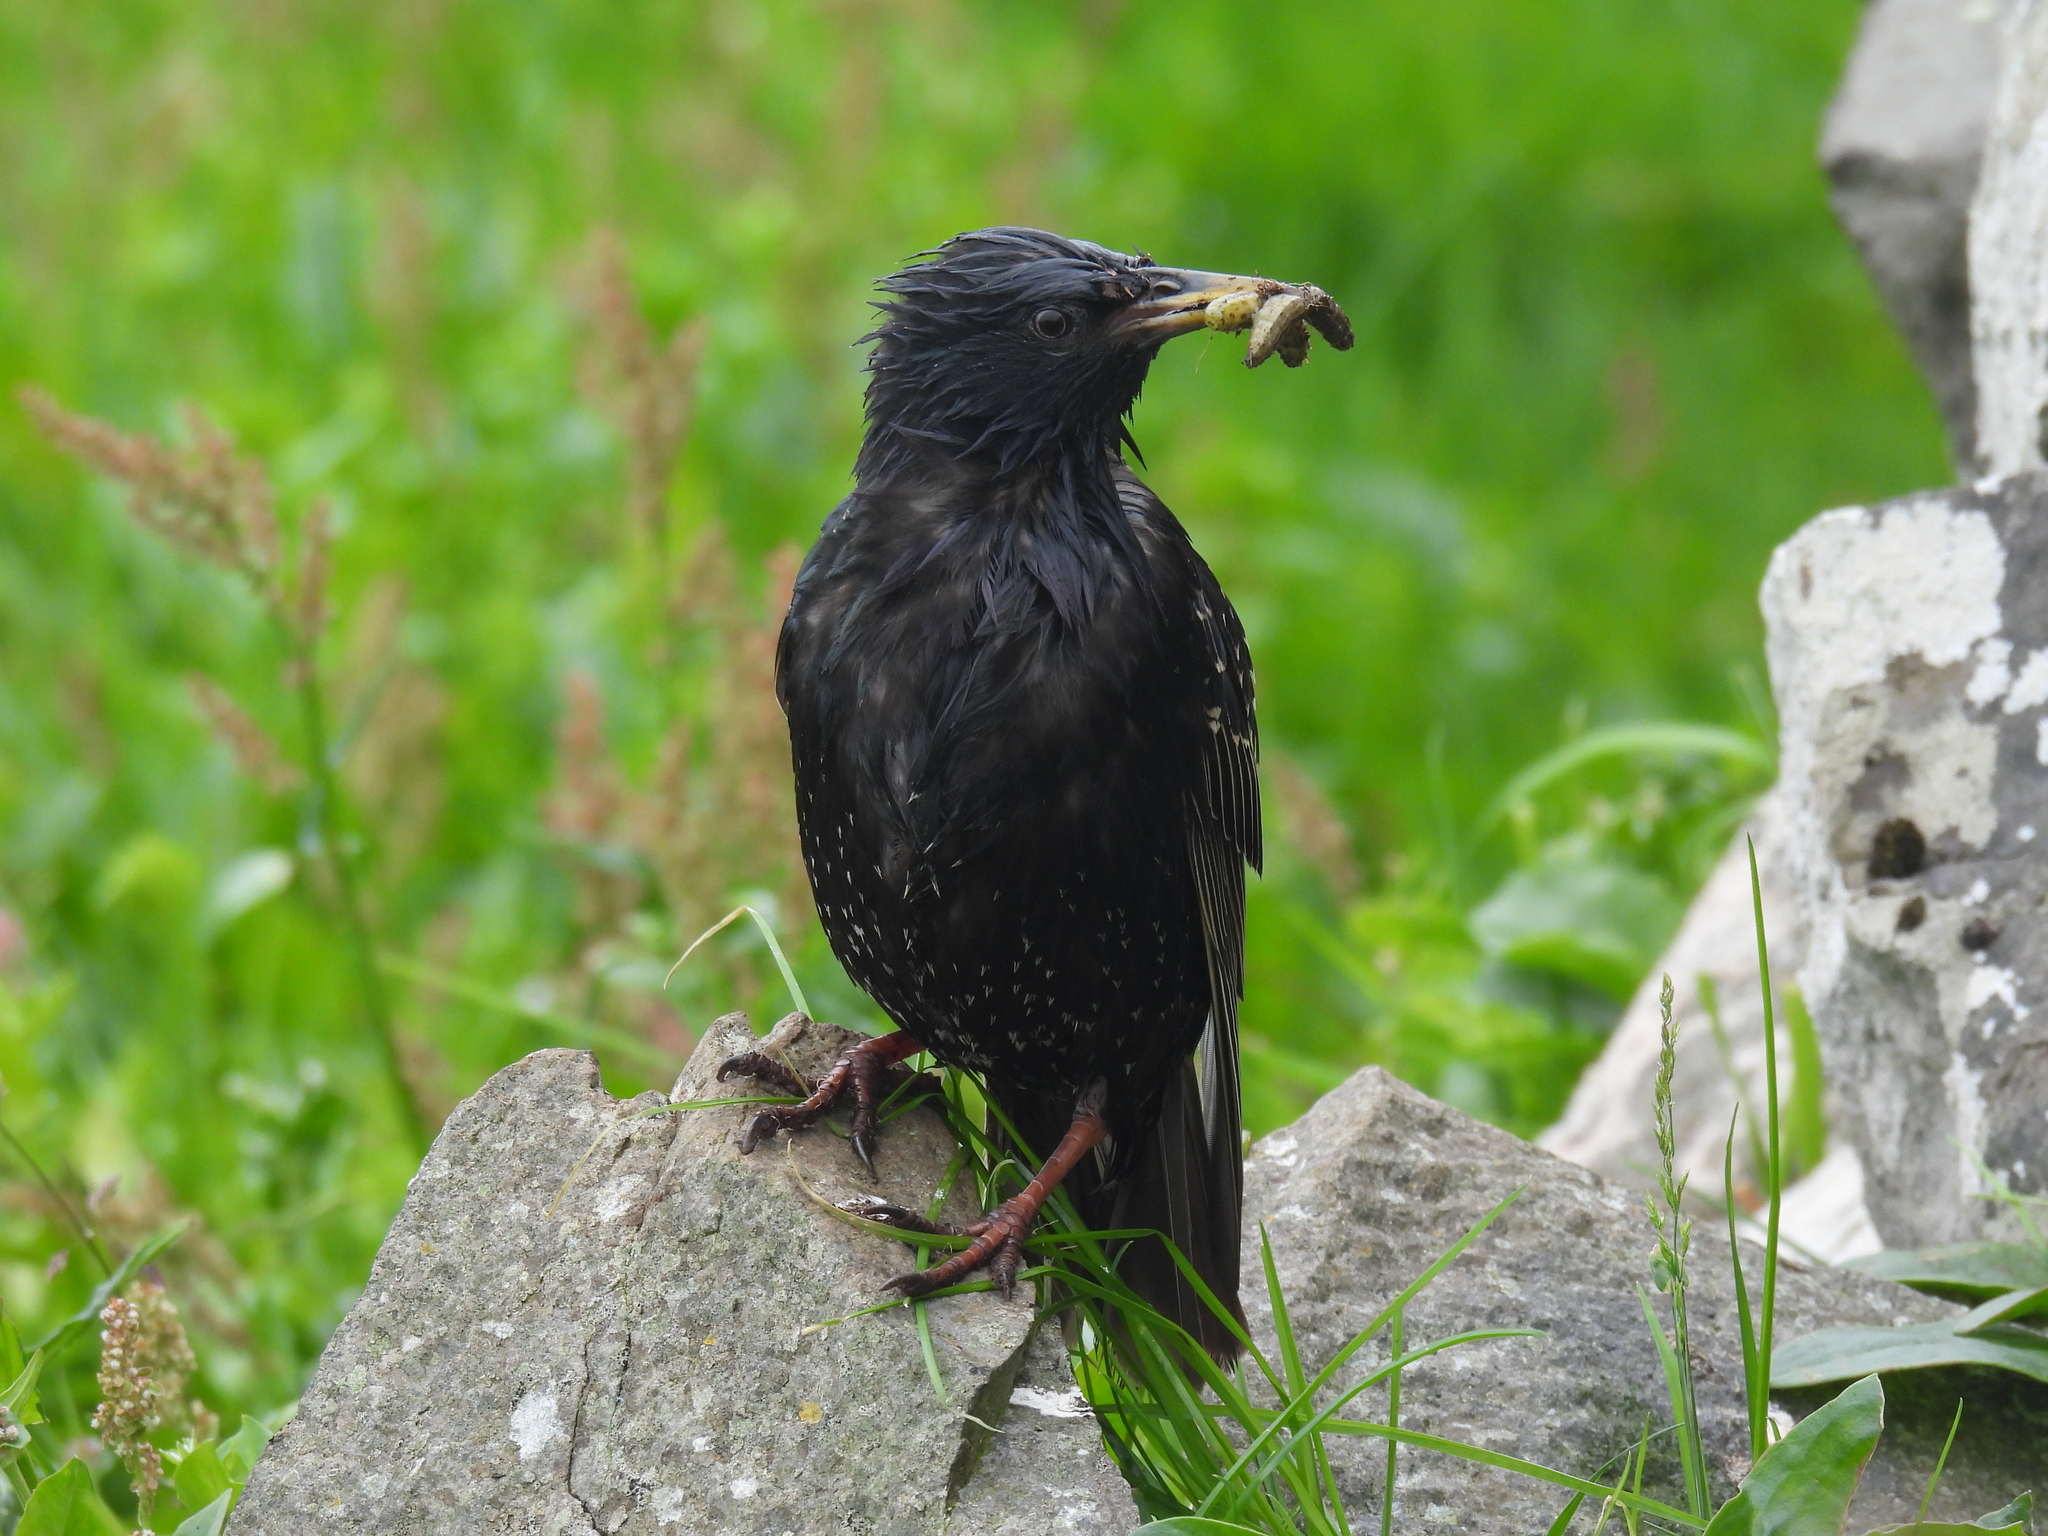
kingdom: Animalia
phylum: Chordata
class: Aves
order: Passeriformes
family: Sturnidae
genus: Sturnus
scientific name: Sturnus vulgaris
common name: Common starling
